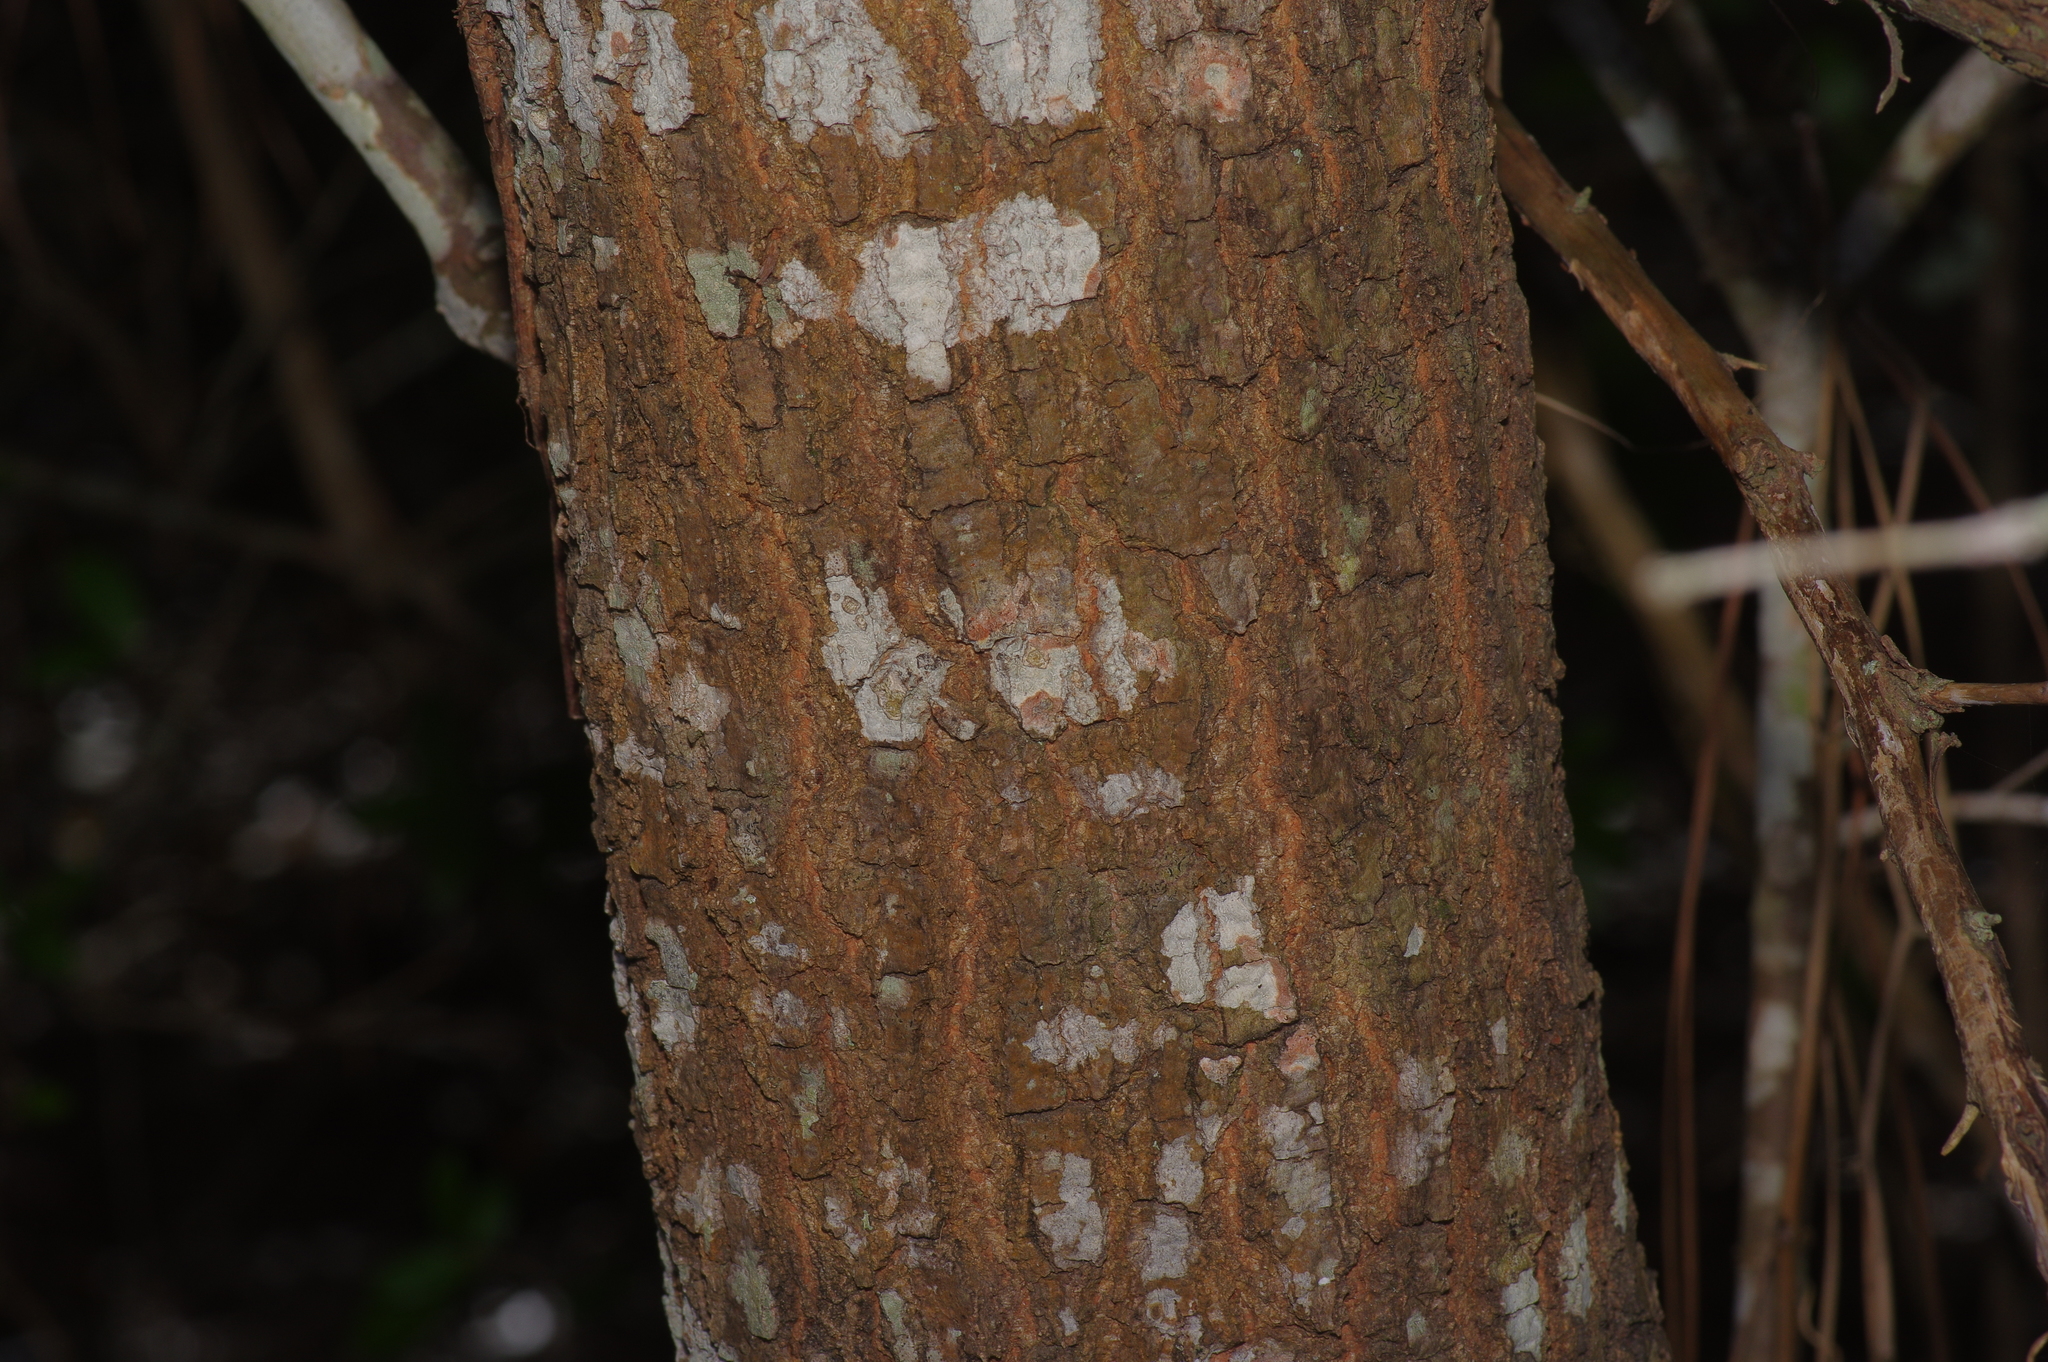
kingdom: Plantae
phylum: Tracheophyta
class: Magnoliopsida
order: Fagales
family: Fagaceae
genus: Quercus
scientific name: Quercus nigra
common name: Water oak
